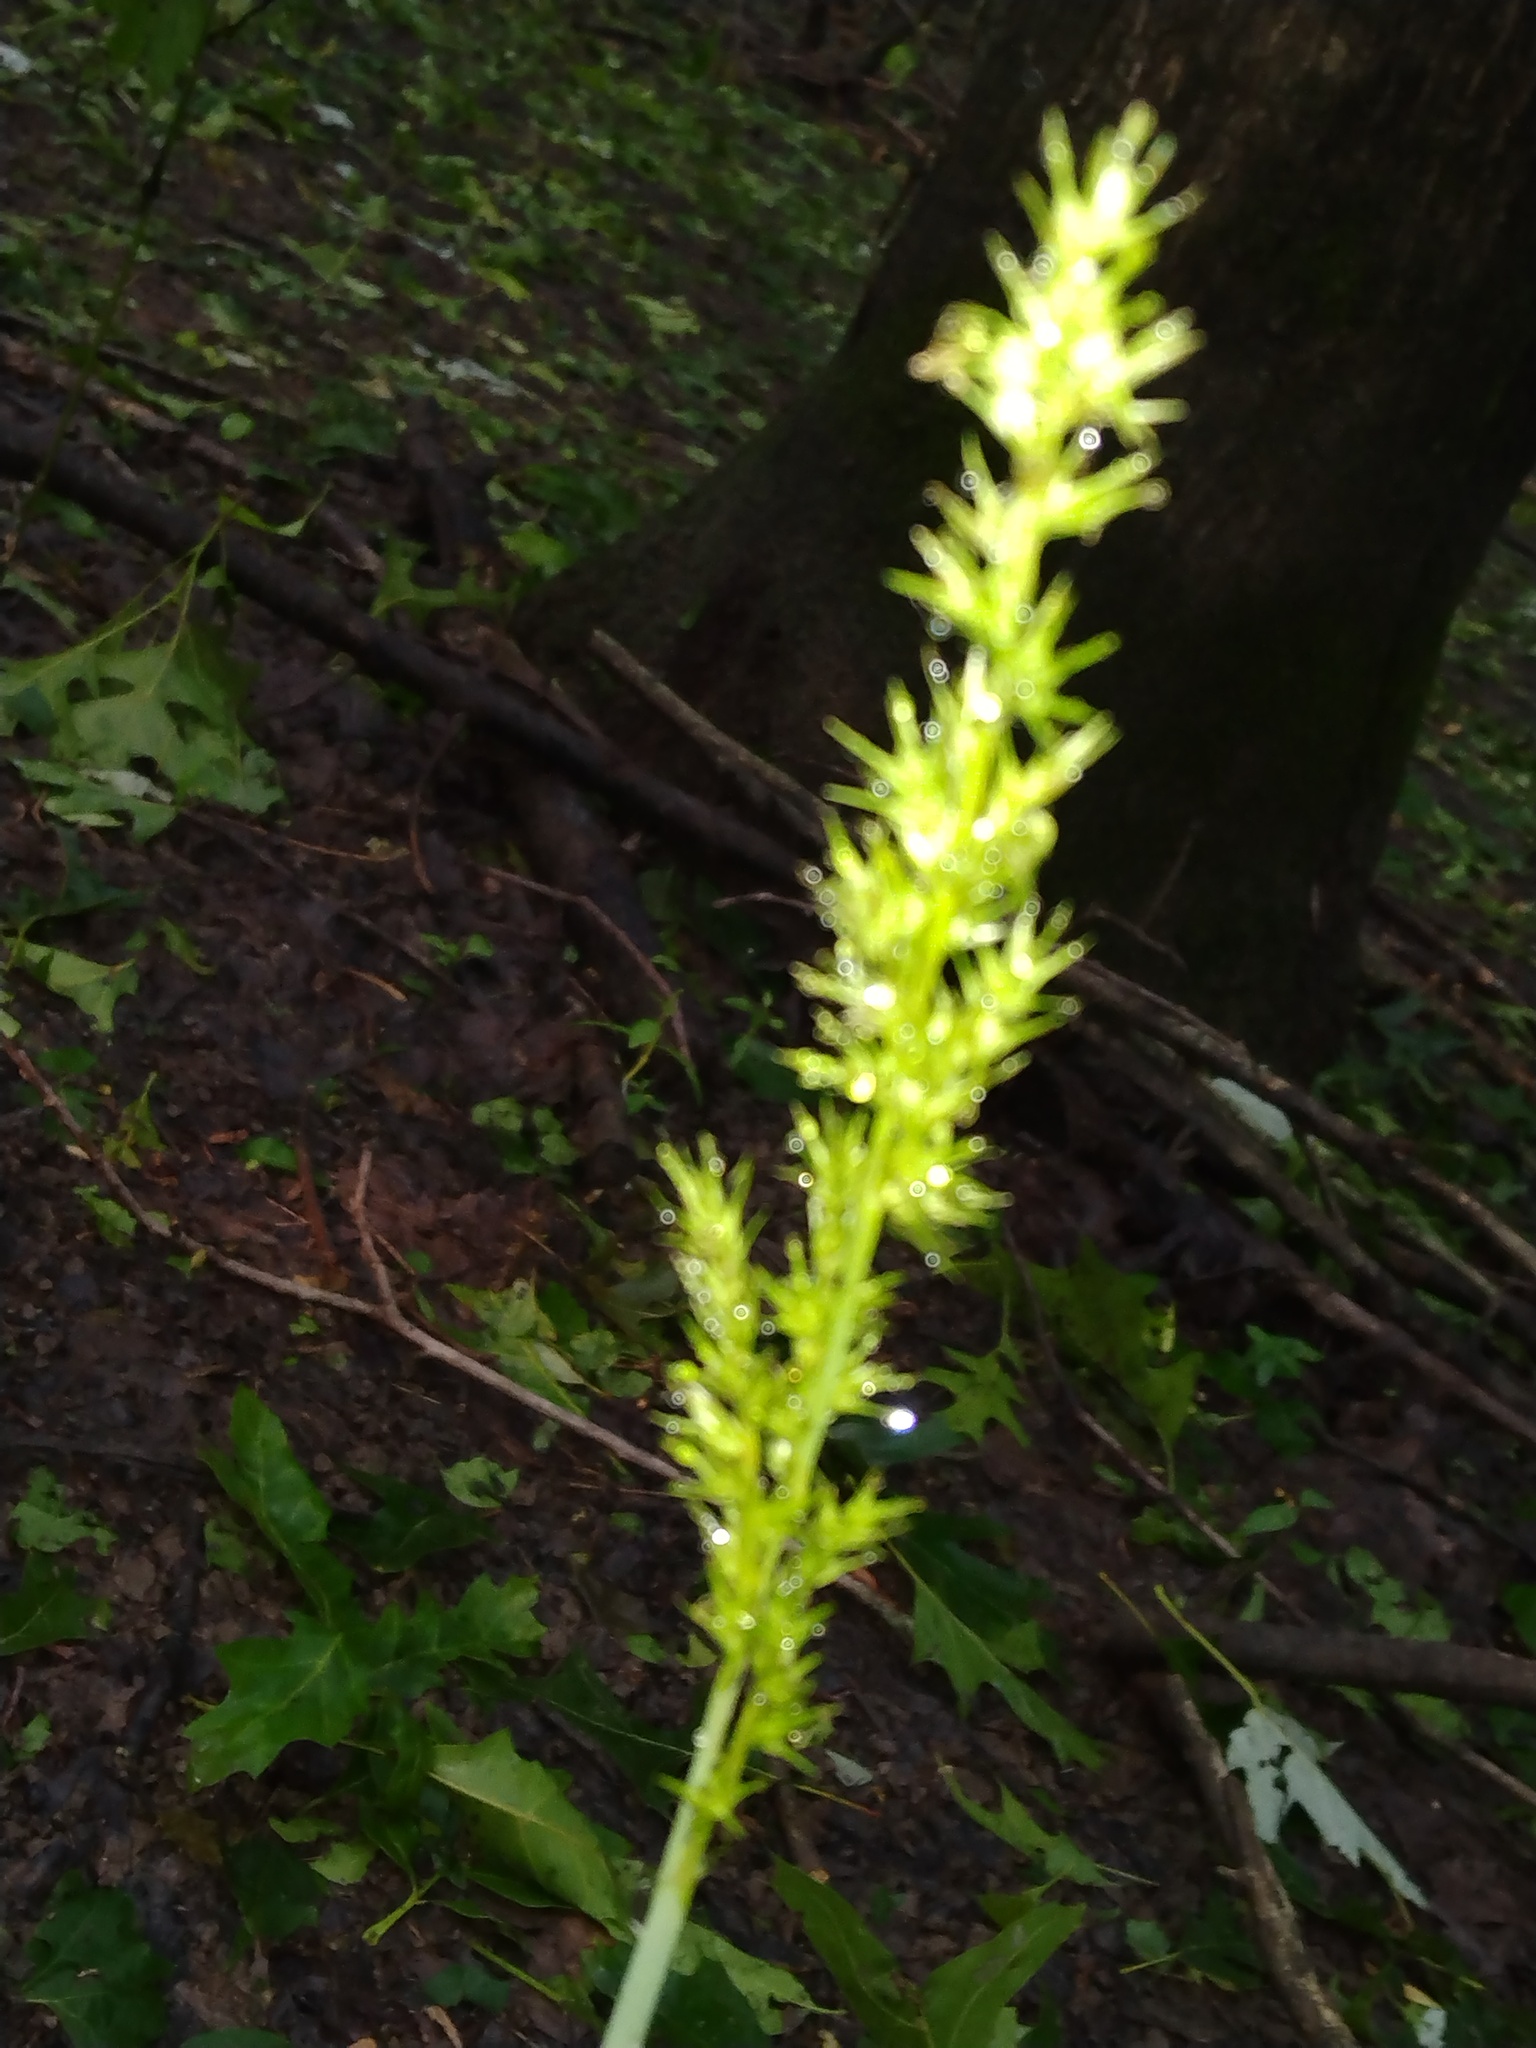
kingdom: Plantae
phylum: Tracheophyta
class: Liliopsida
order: Poales
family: Cyperaceae
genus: Carex
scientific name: Carex crus-corvi
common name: Crow-spur sedge
